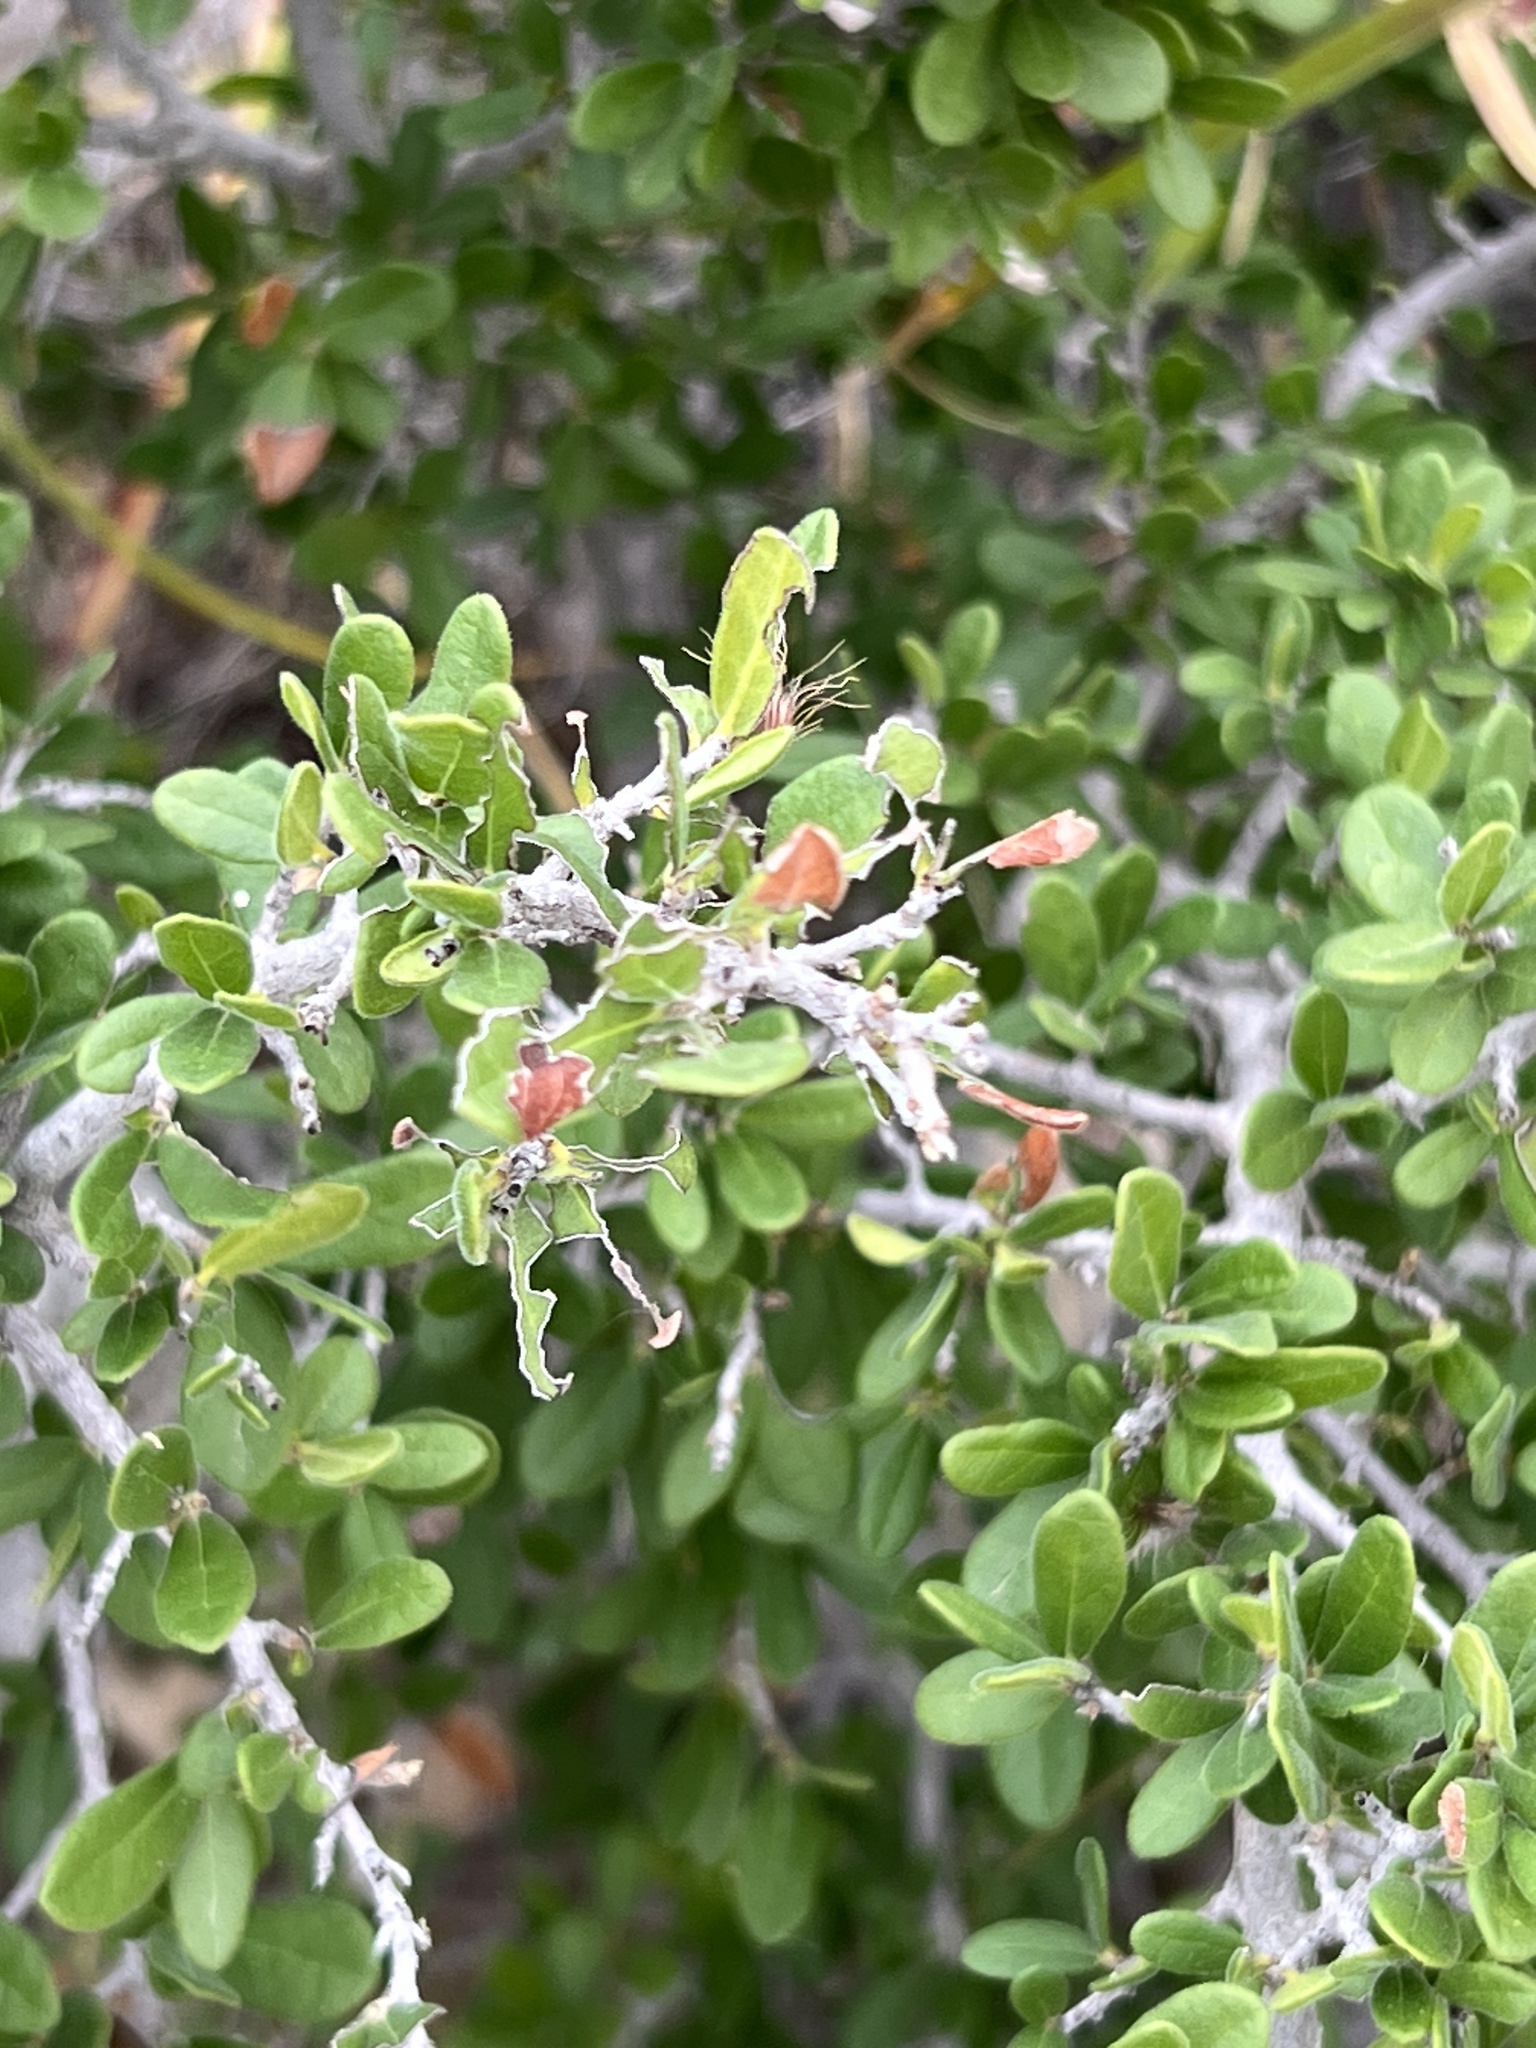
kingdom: Plantae
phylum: Tracheophyta
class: Magnoliopsida
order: Ericales
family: Ebenaceae
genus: Diospyros
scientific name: Diospyros texana
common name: Texas persimmon
